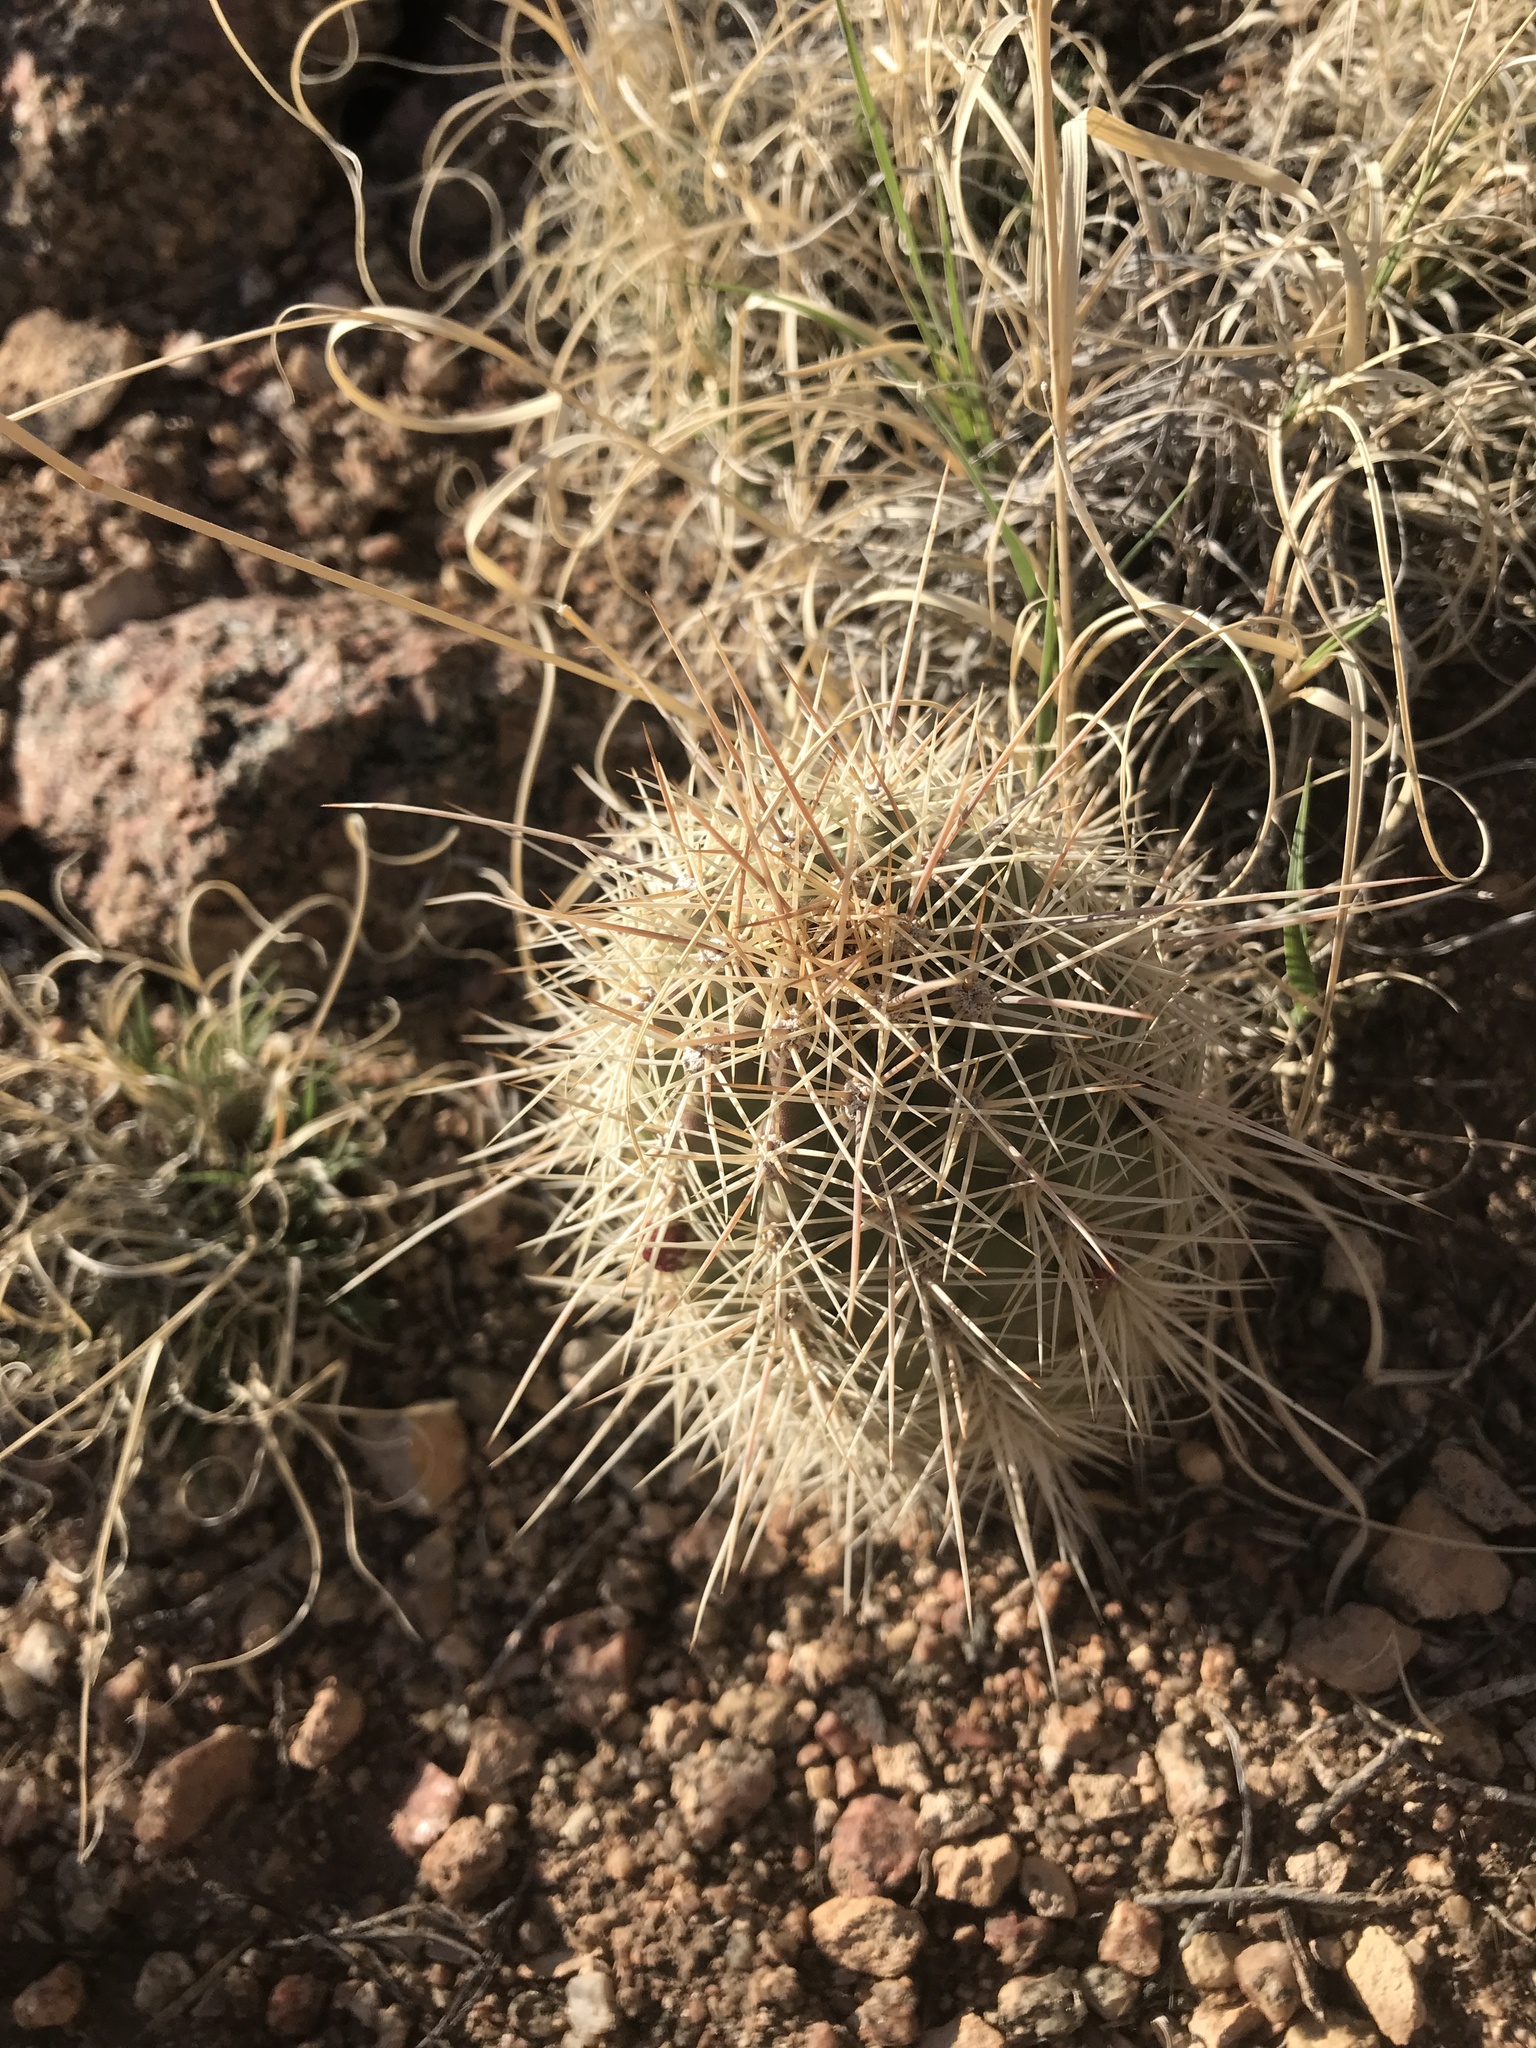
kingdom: Plantae
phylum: Tracheophyta
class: Magnoliopsida
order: Caryophyllales
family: Cactaceae
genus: Echinocereus
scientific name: Echinocereus coccineus
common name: Scarlet hedgehog cactus
